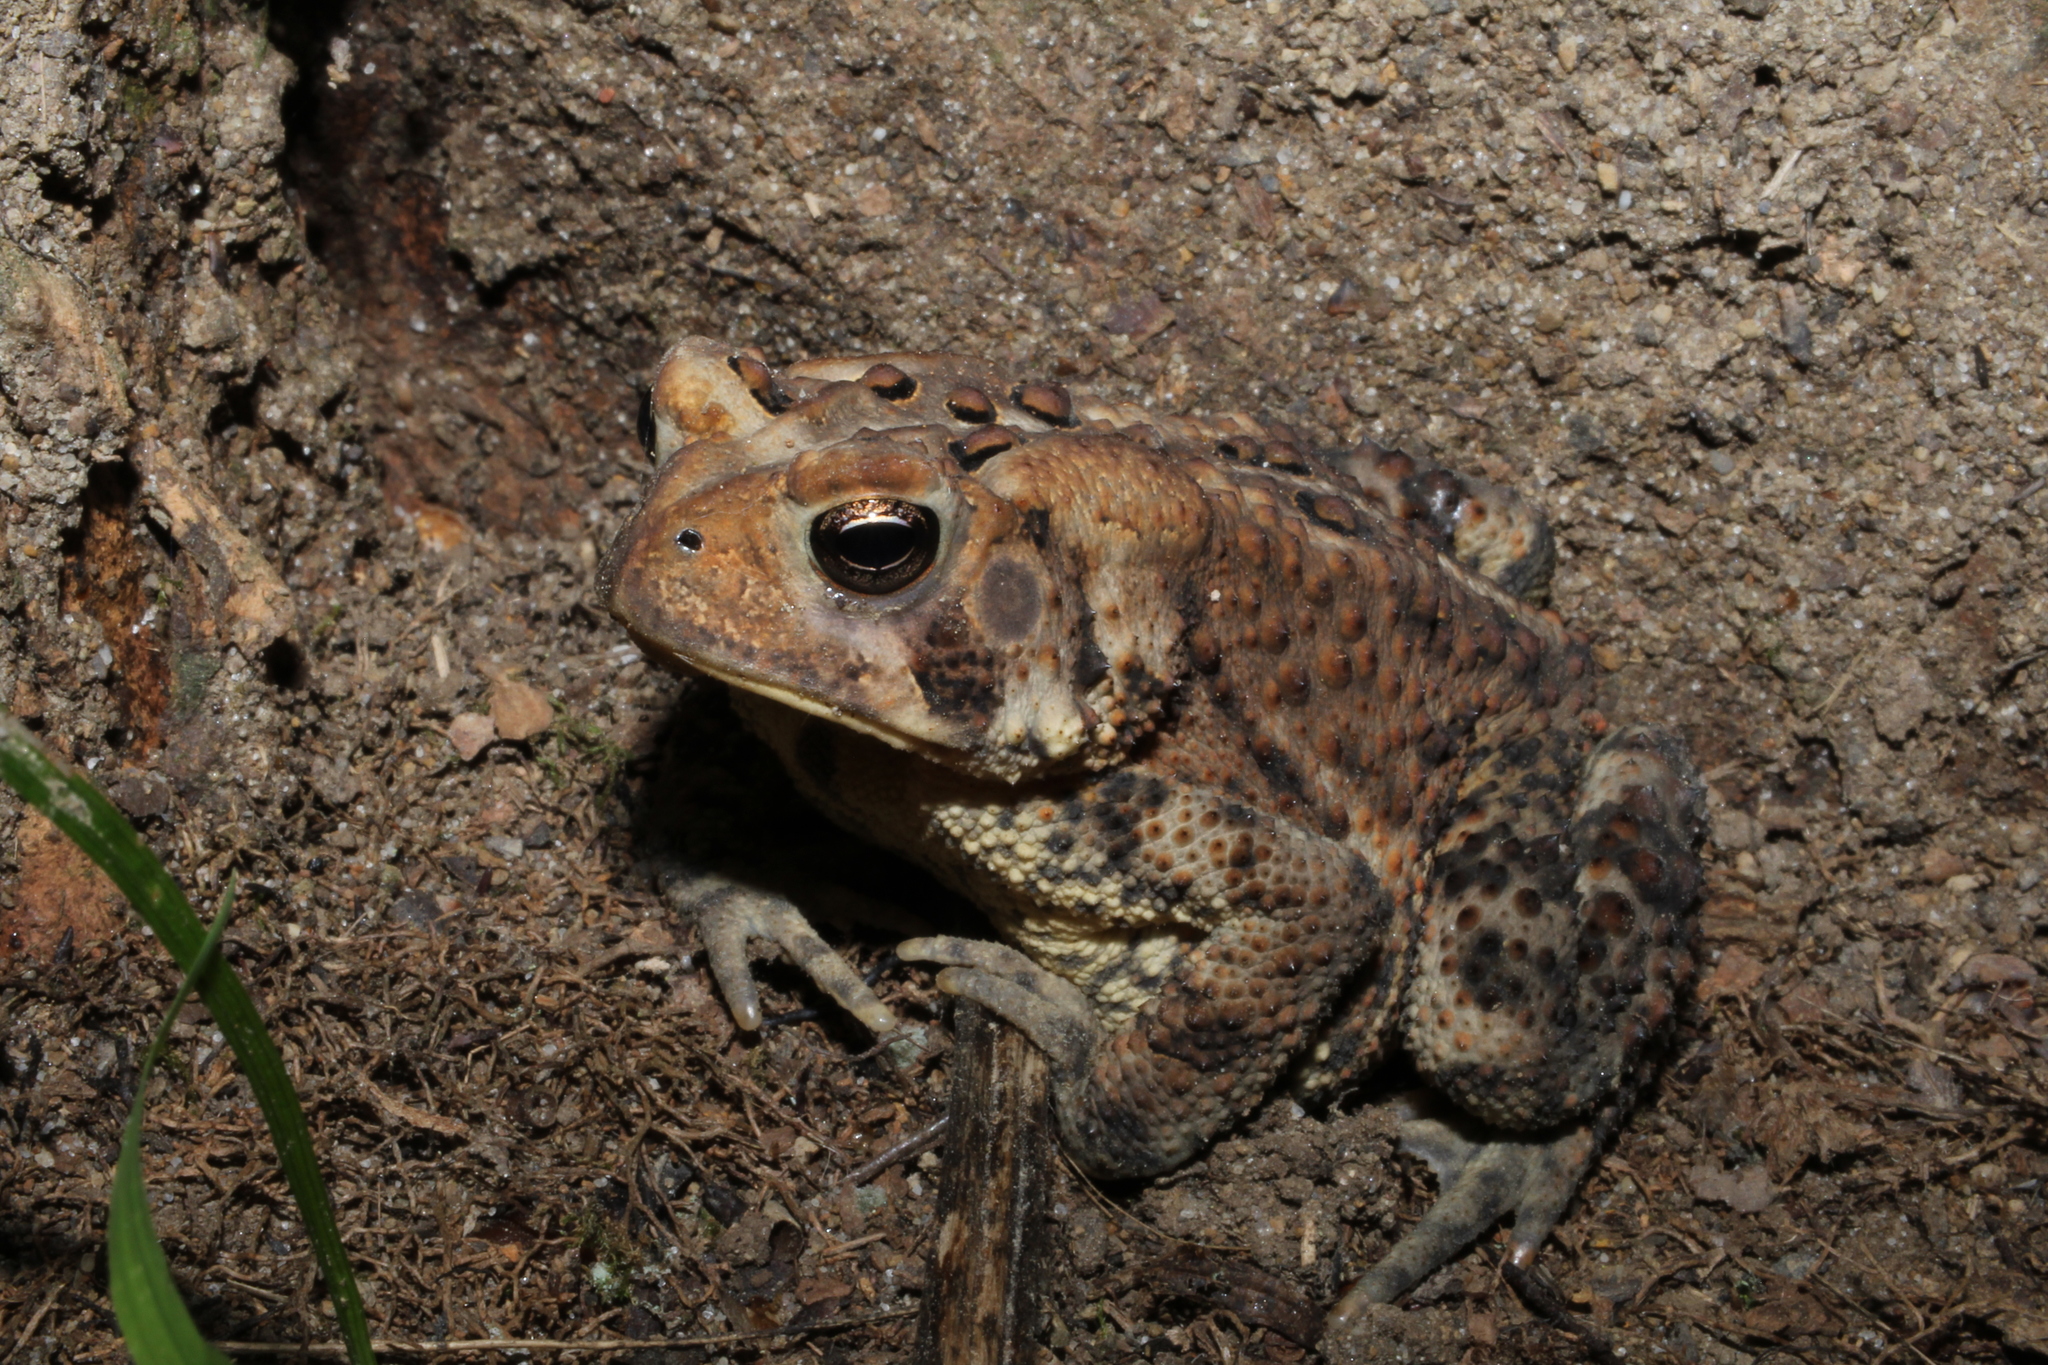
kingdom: Animalia
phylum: Chordata
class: Amphibia
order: Anura
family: Bufonidae
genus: Anaxyrus
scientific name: Anaxyrus americanus
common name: American toad
